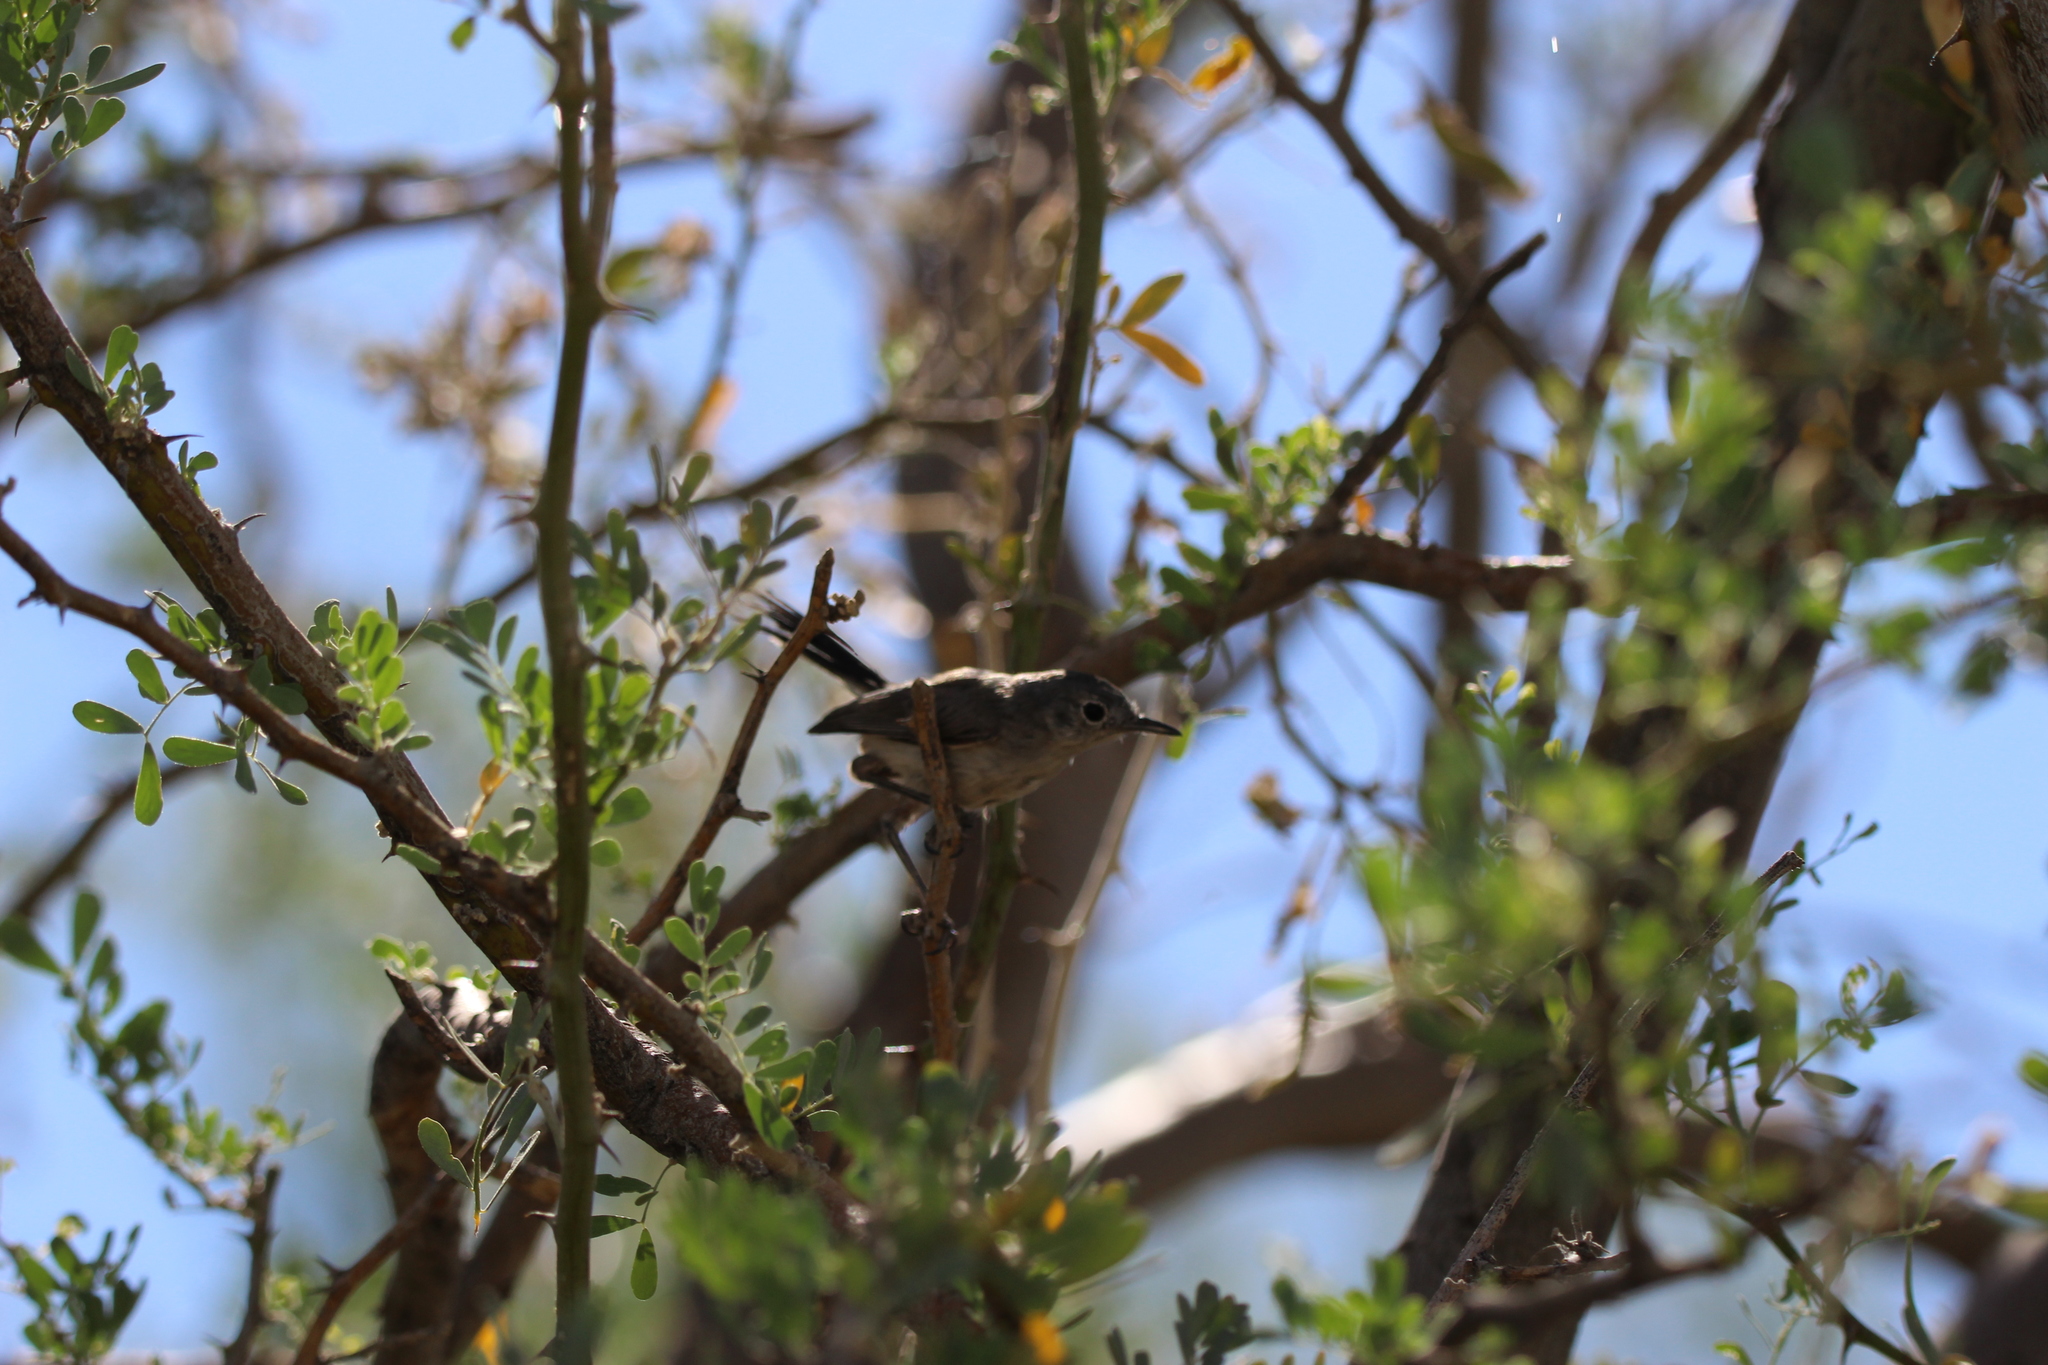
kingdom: Animalia
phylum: Chordata
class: Aves
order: Passeriformes
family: Polioptilidae
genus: Polioptila
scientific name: Polioptila melanura
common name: Black-tailed gnatcatcher
